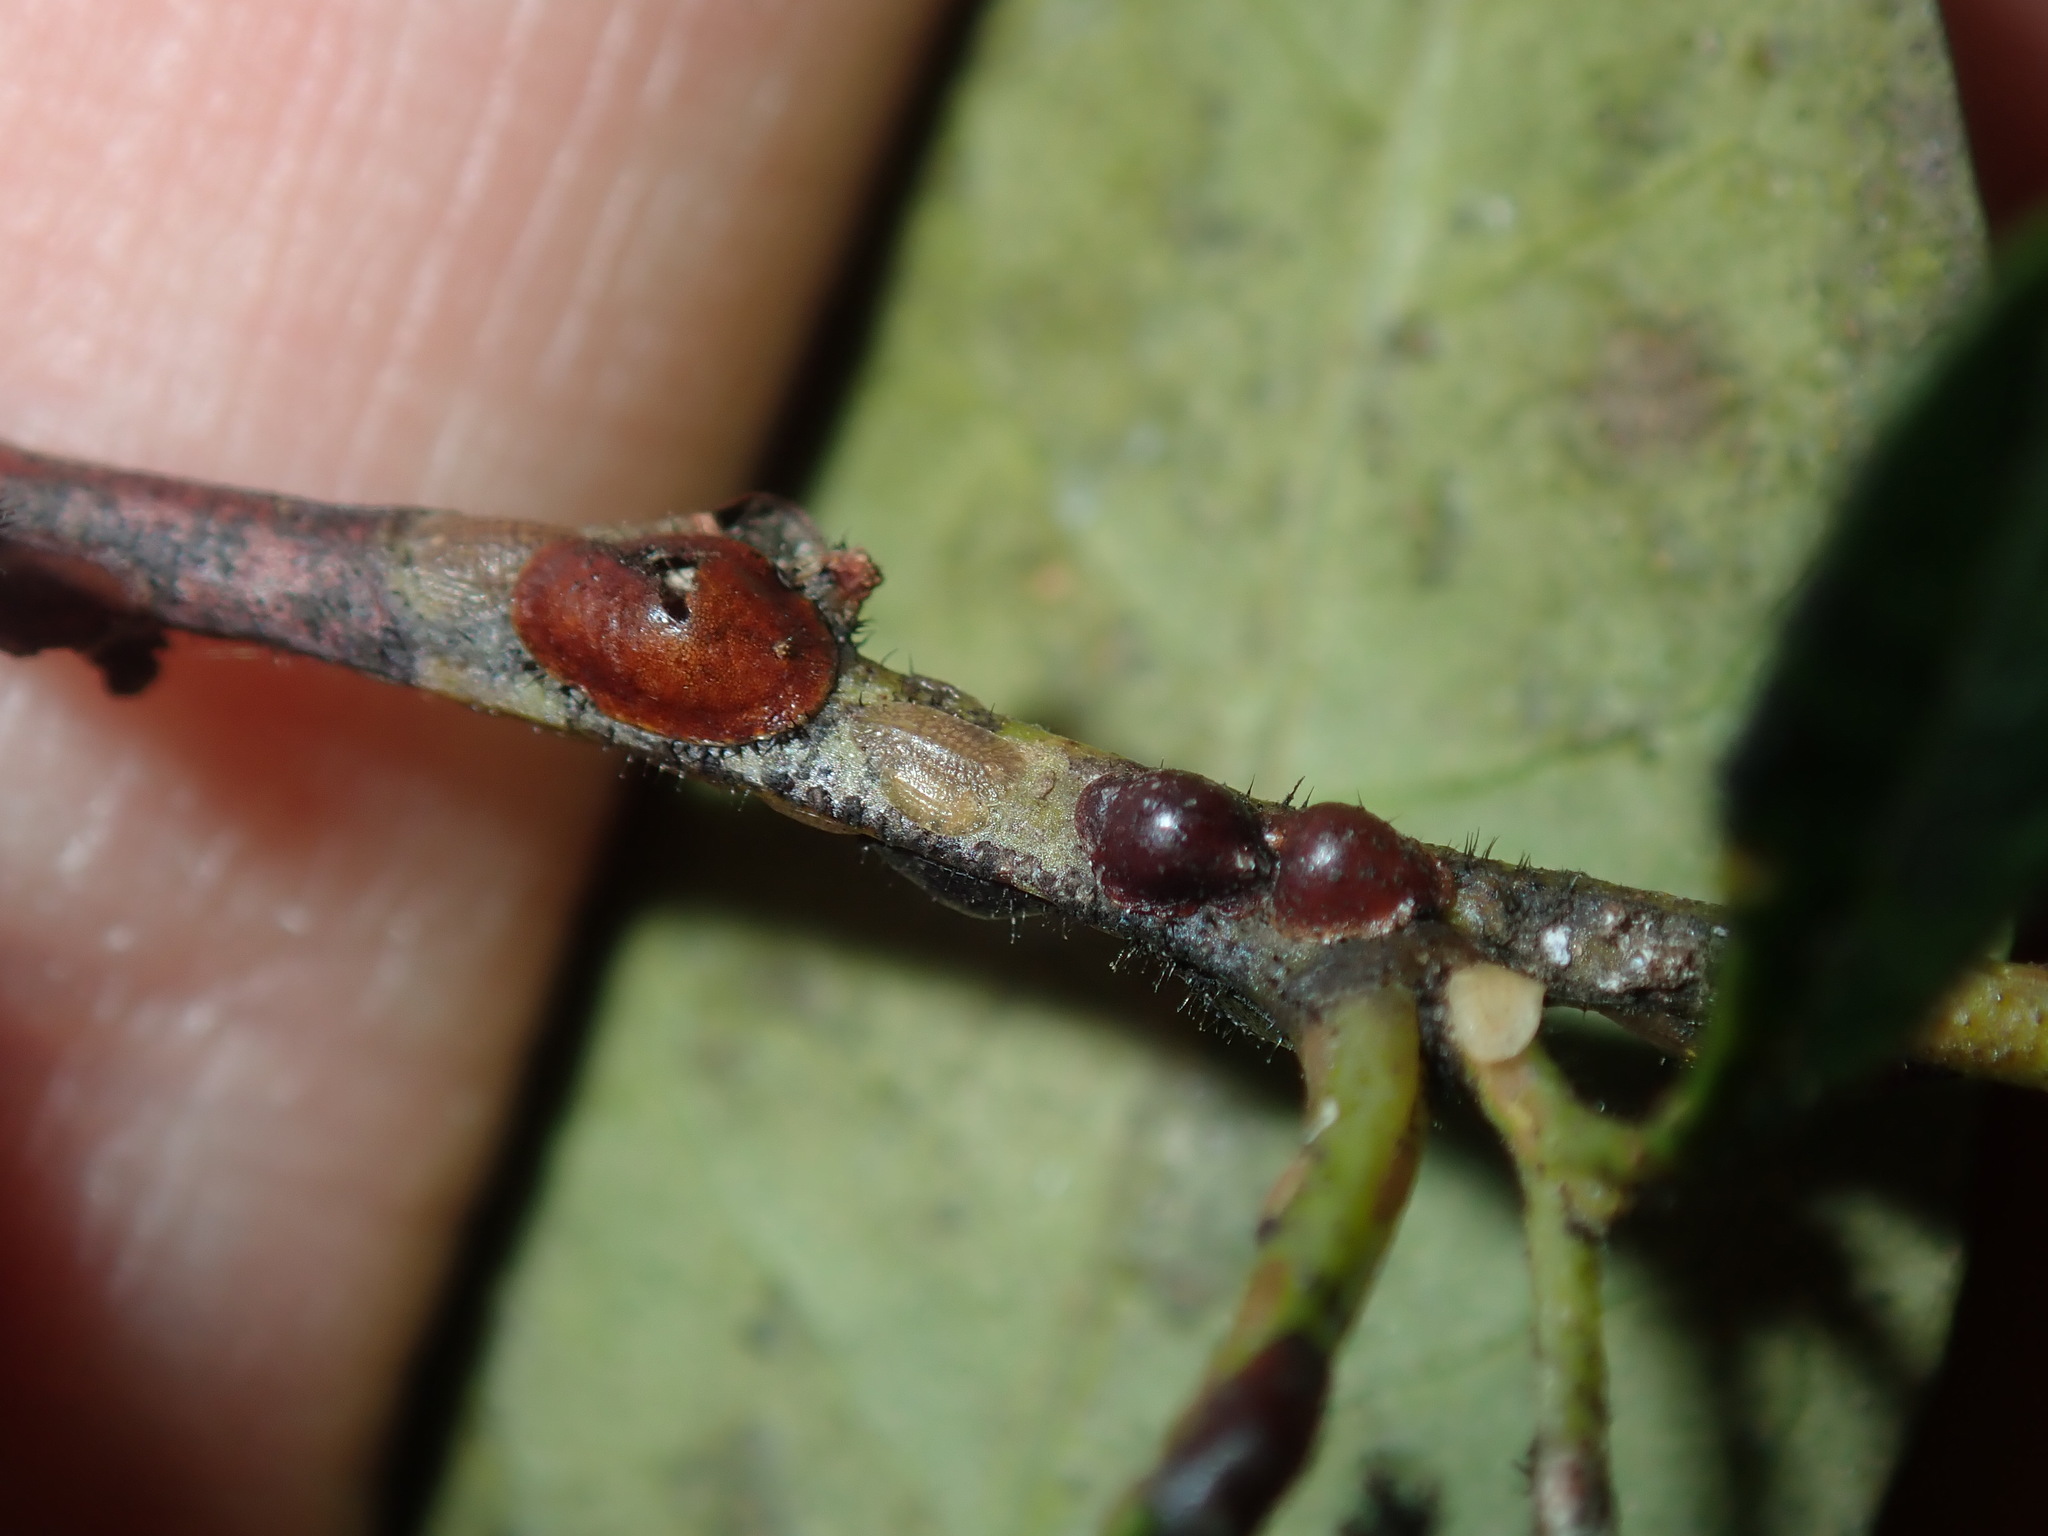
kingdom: Animalia
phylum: Arthropoda
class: Insecta
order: Hemiptera
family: Coccidae
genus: Parasaissetia
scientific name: Parasaissetia nigra
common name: Black scale
